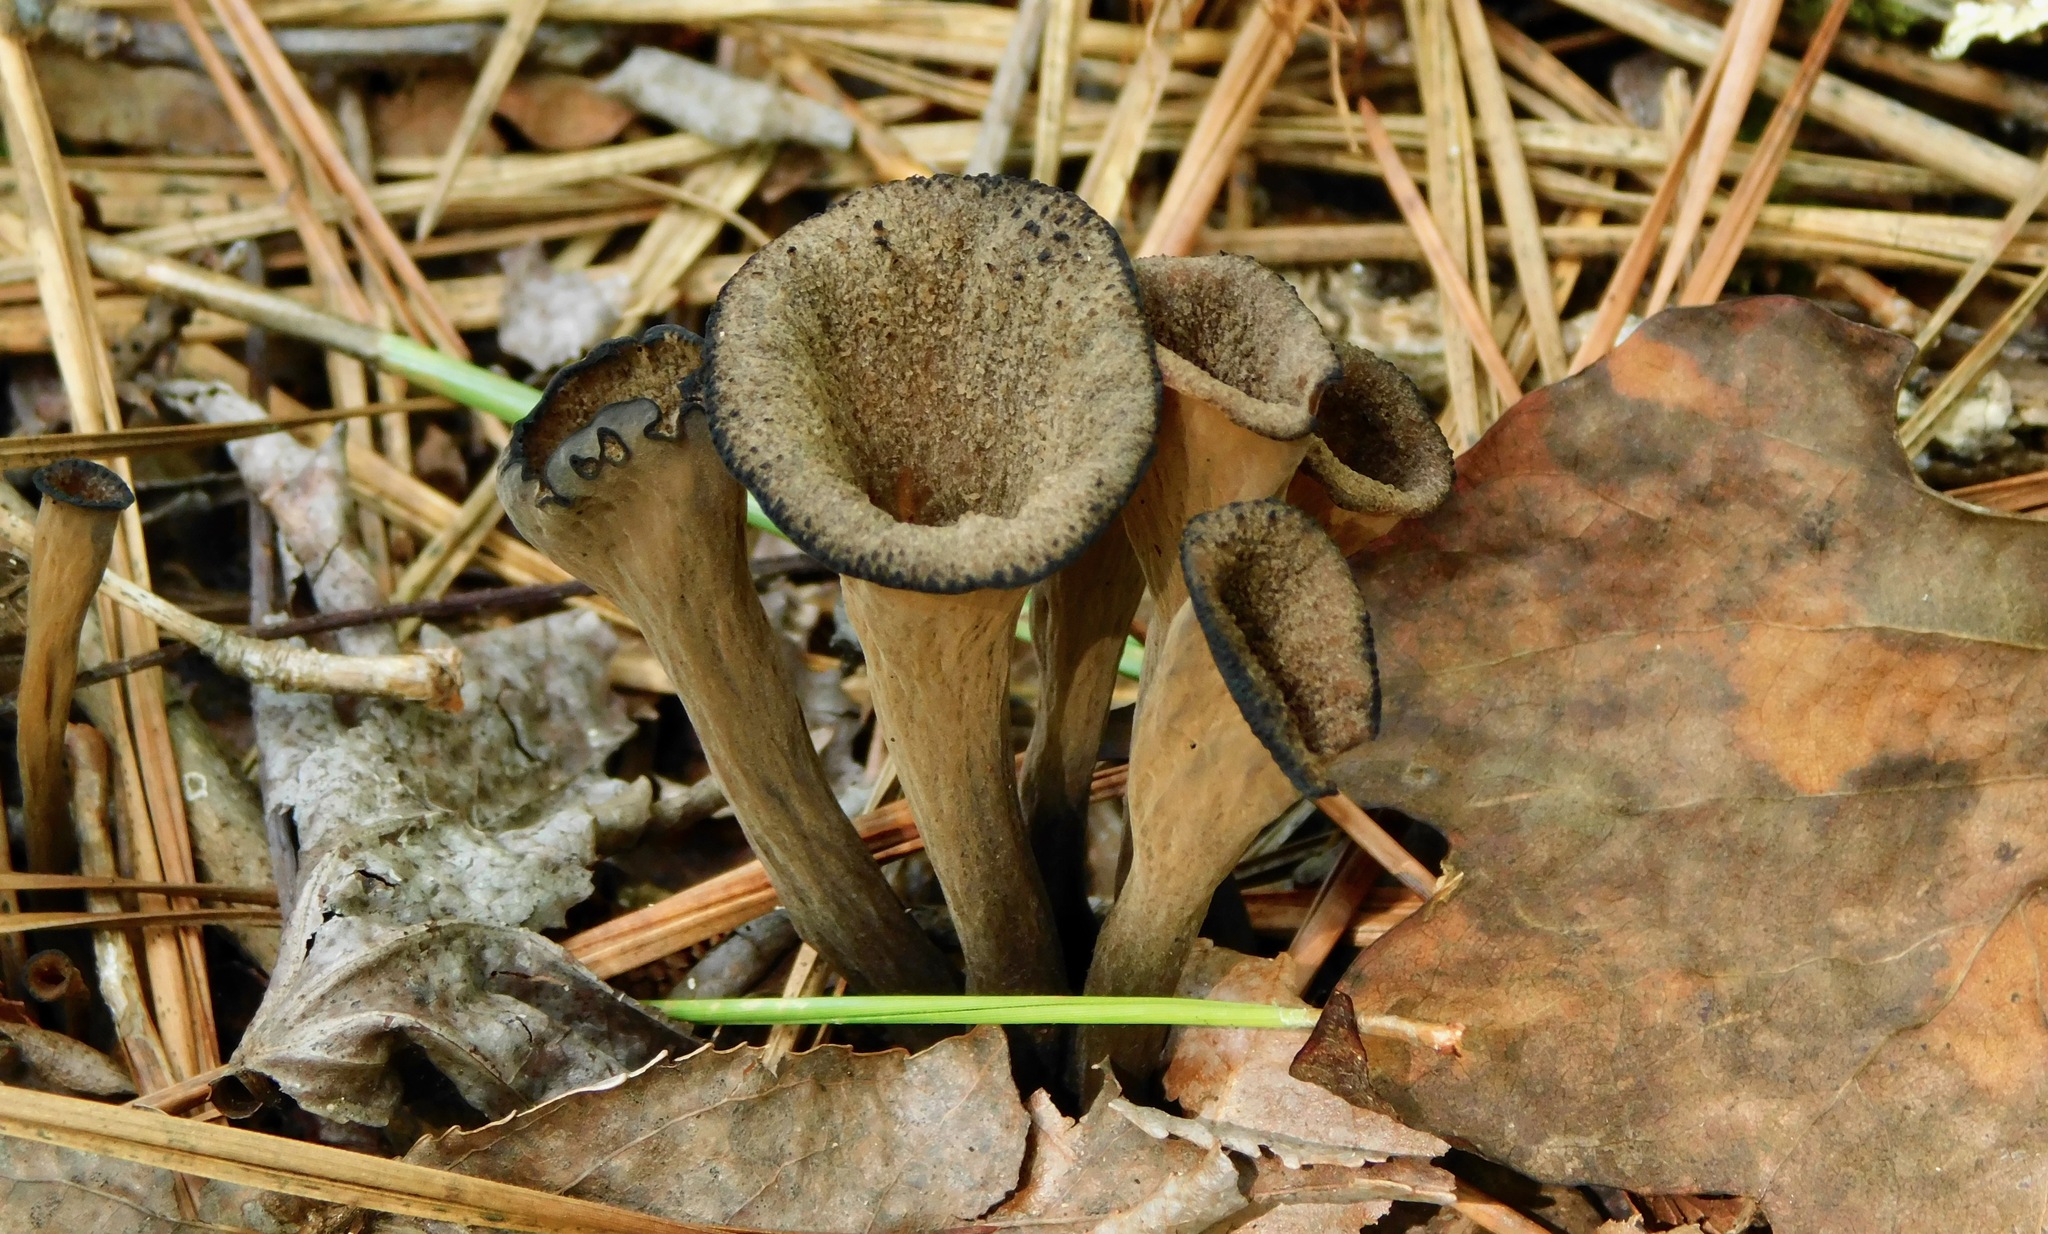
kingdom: Fungi
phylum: Basidiomycota
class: Agaricomycetes
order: Cantharellales
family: Hydnaceae
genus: Craterellus
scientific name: Craterellus cornucopioides
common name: Horn of plenty
